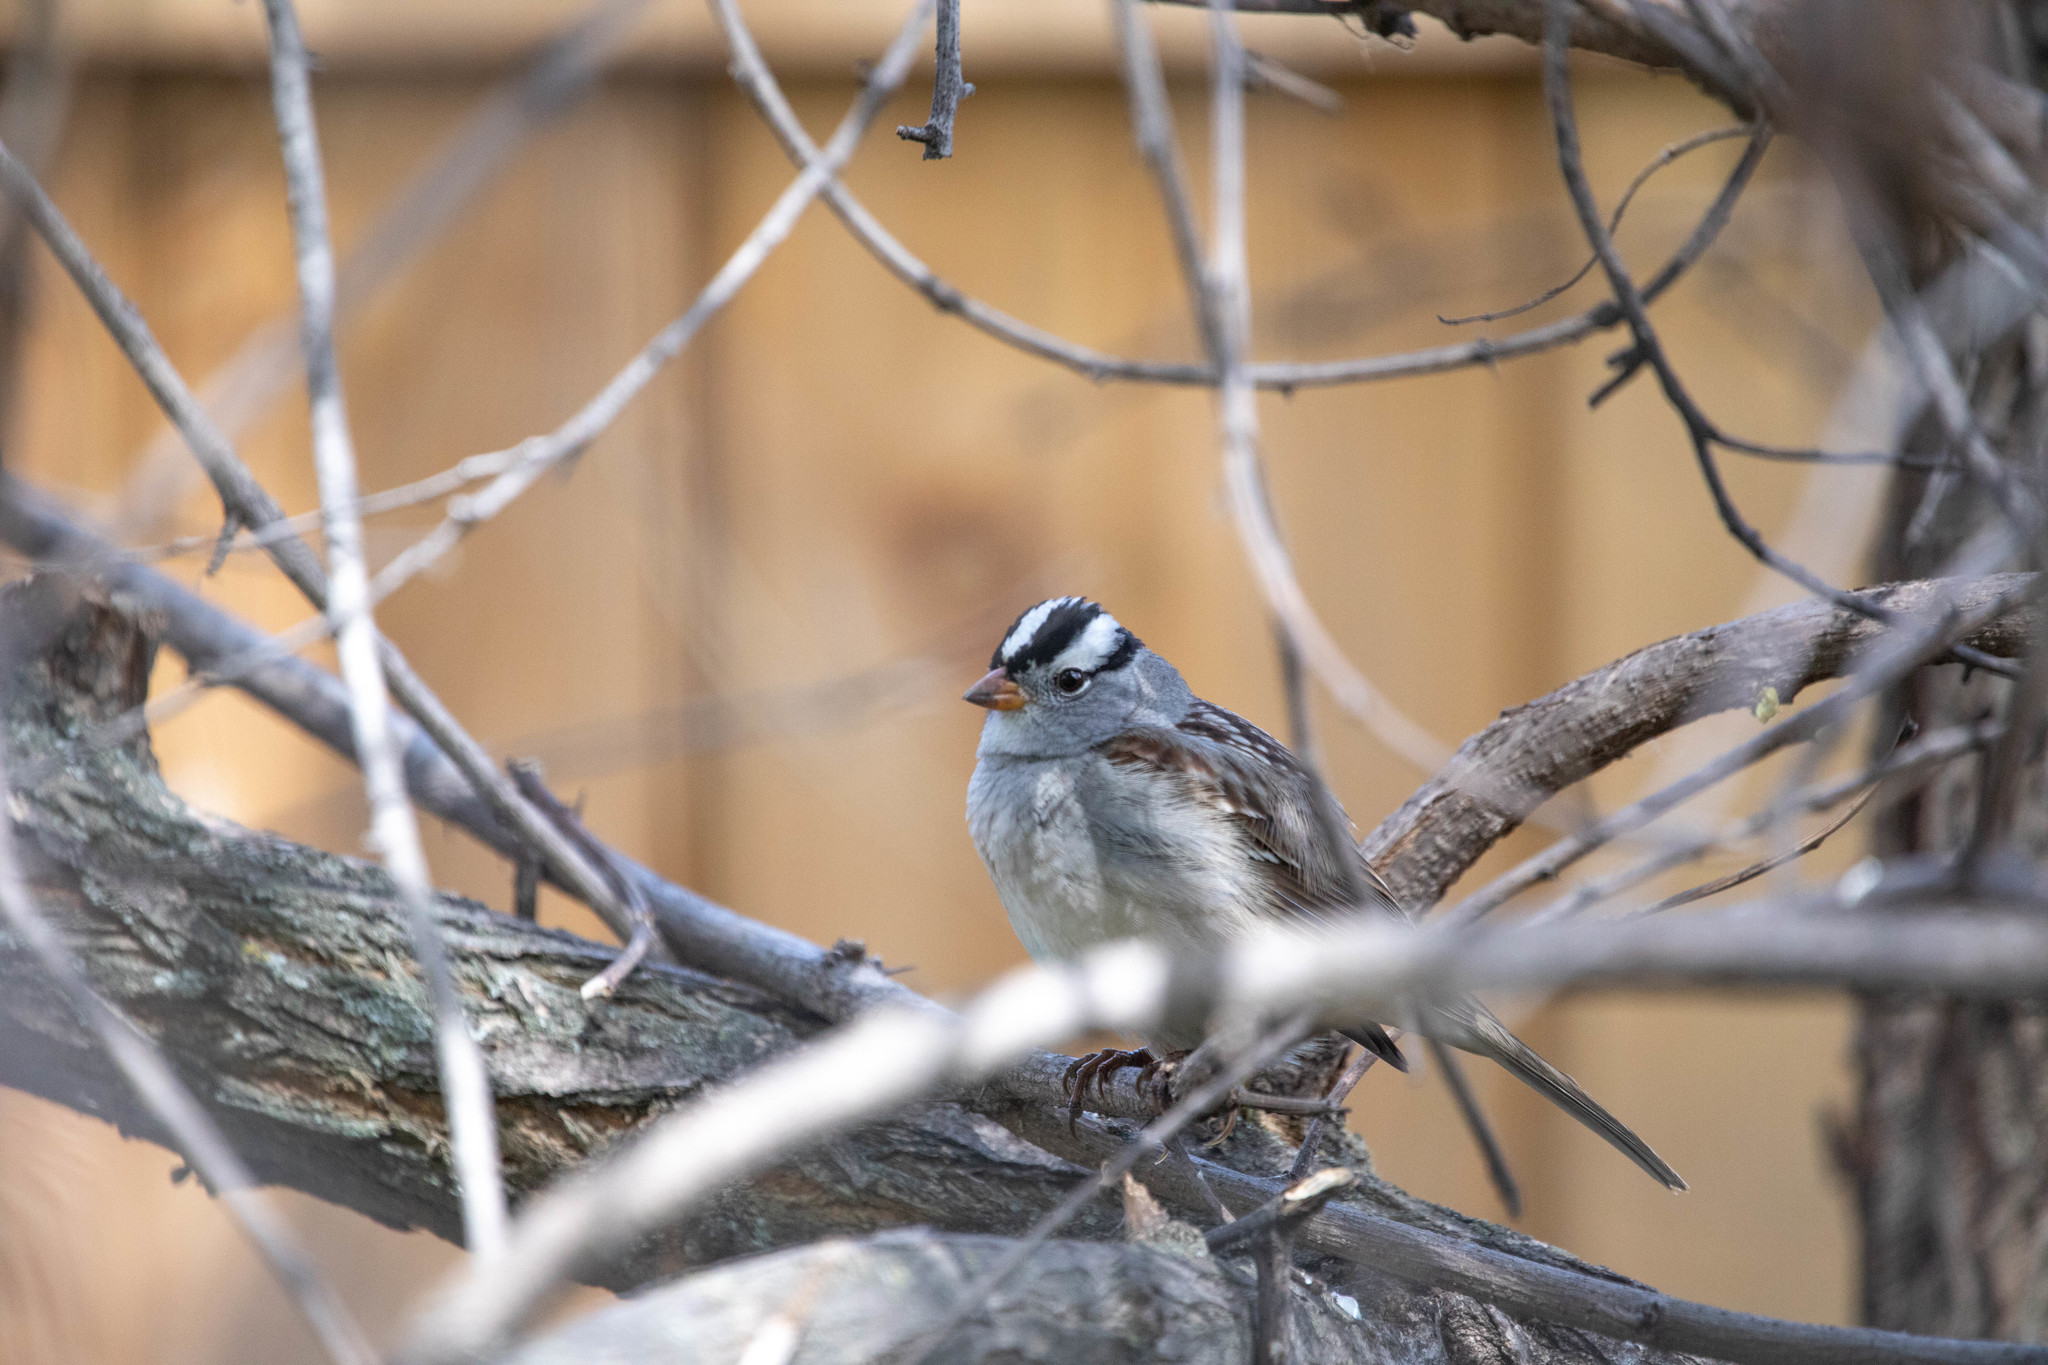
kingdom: Animalia
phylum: Chordata
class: Aves
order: Passeriformes
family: Passerellidae
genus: Zonotrichia
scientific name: Zonotrichia leucophrys
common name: White-crowned sparrow
